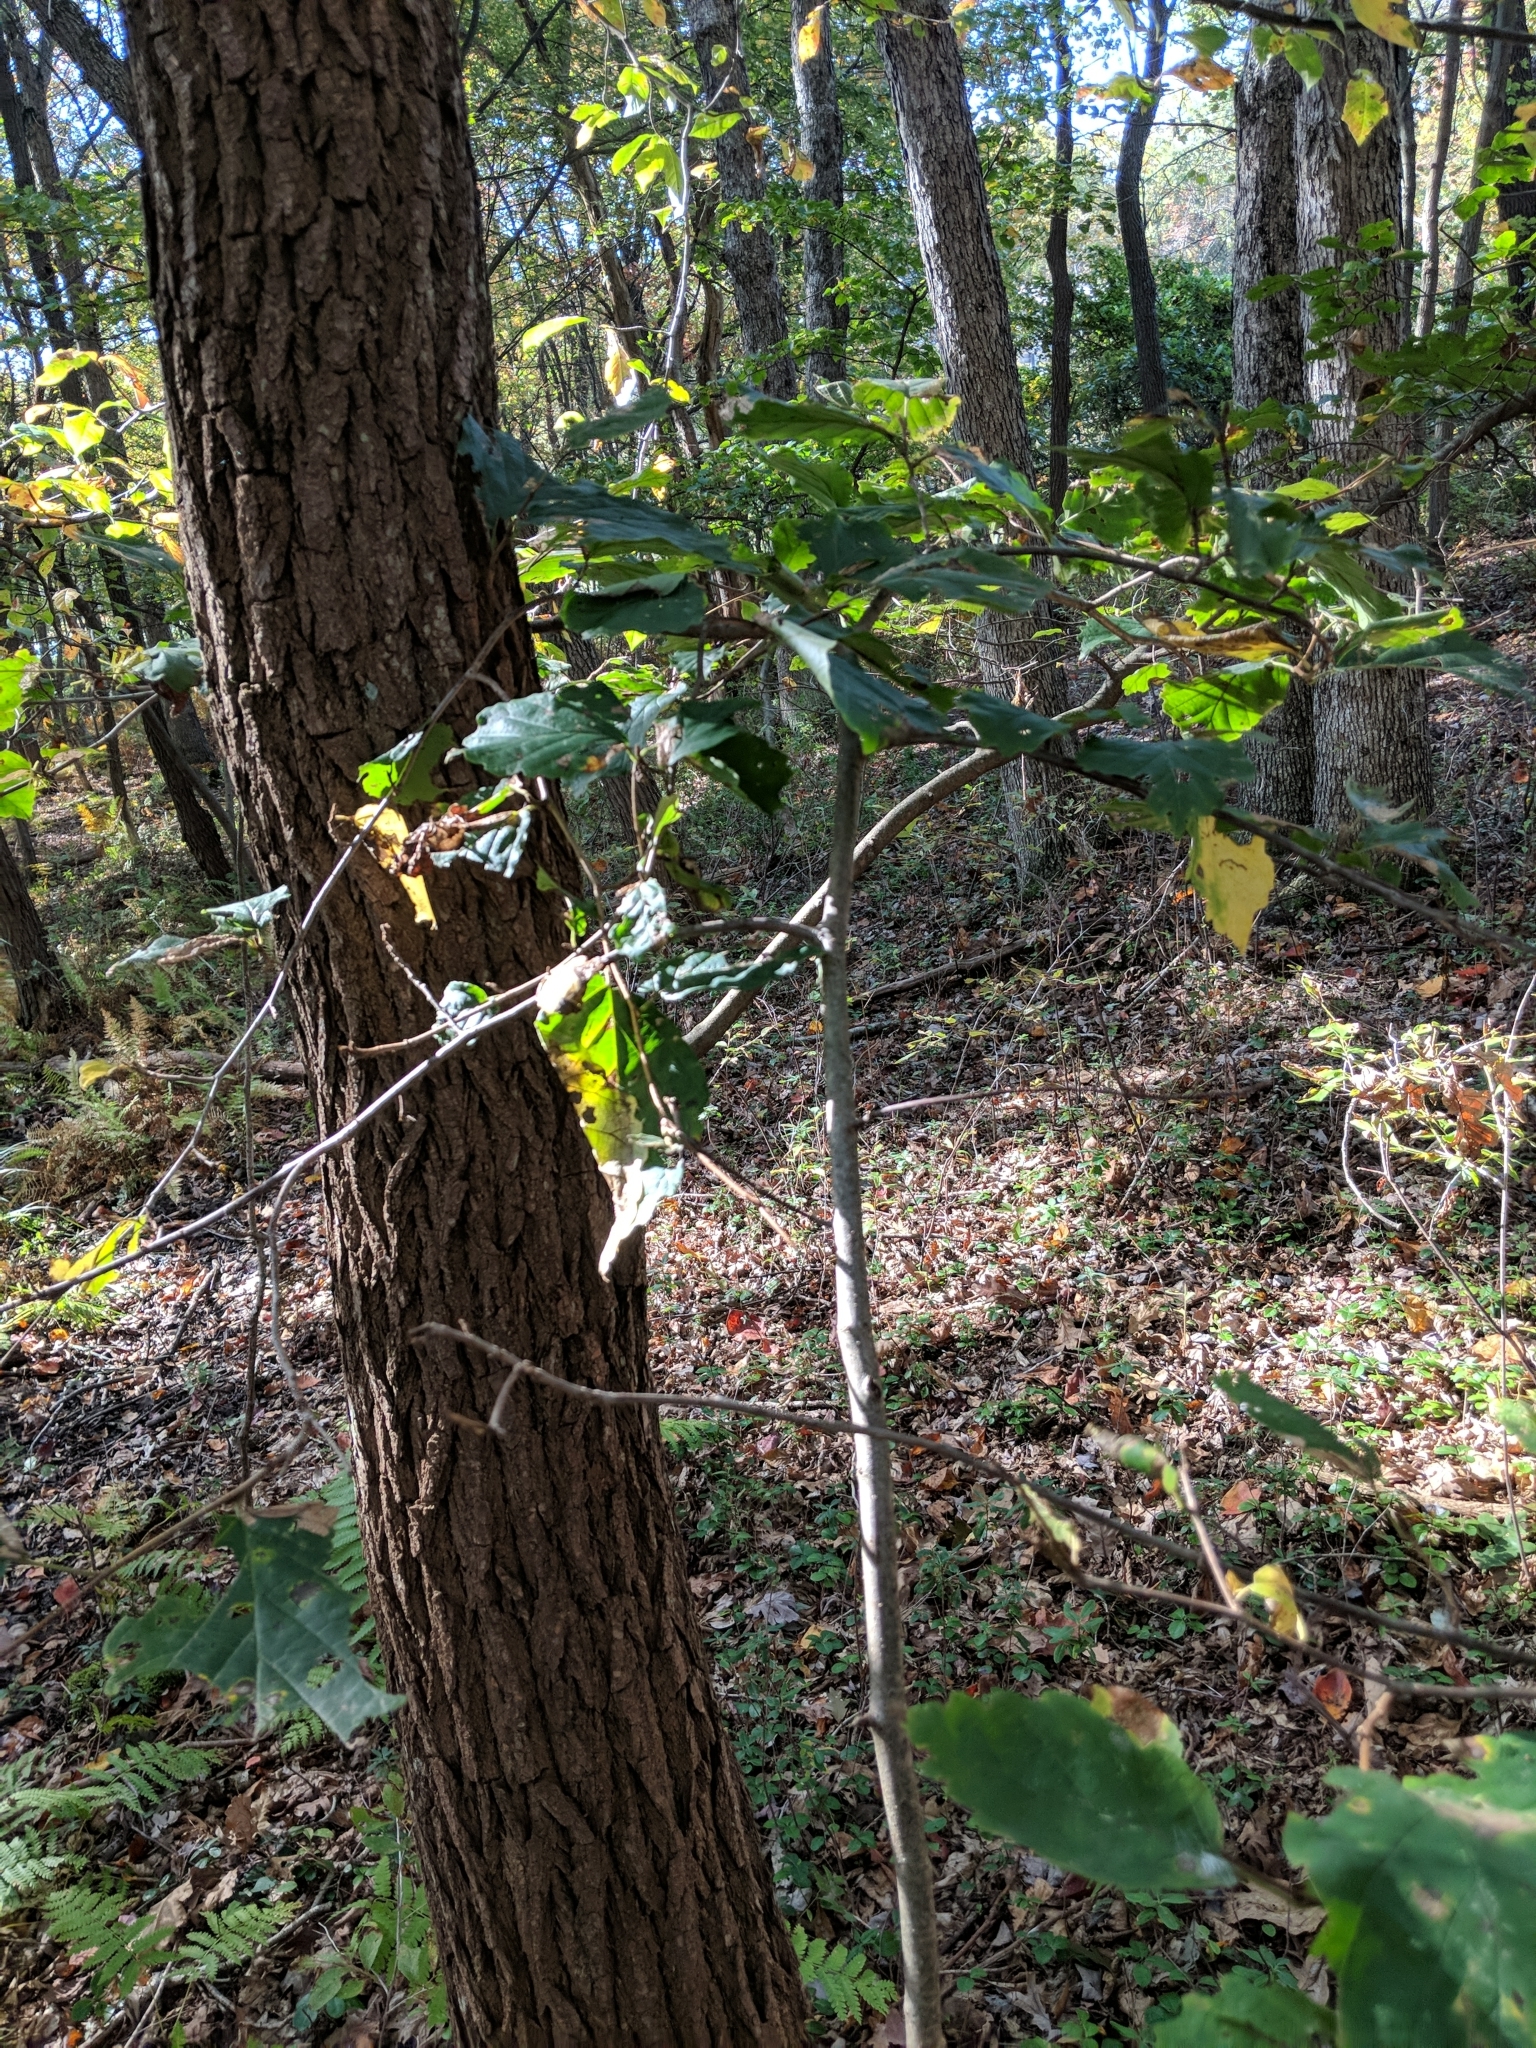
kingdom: Plantae
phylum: Tracheophyta
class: Magnoliopsida
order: Saxifragales
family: Hamamelidaceae
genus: Hamamelis
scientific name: Hamamelis virginiana
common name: Witch-hazel
